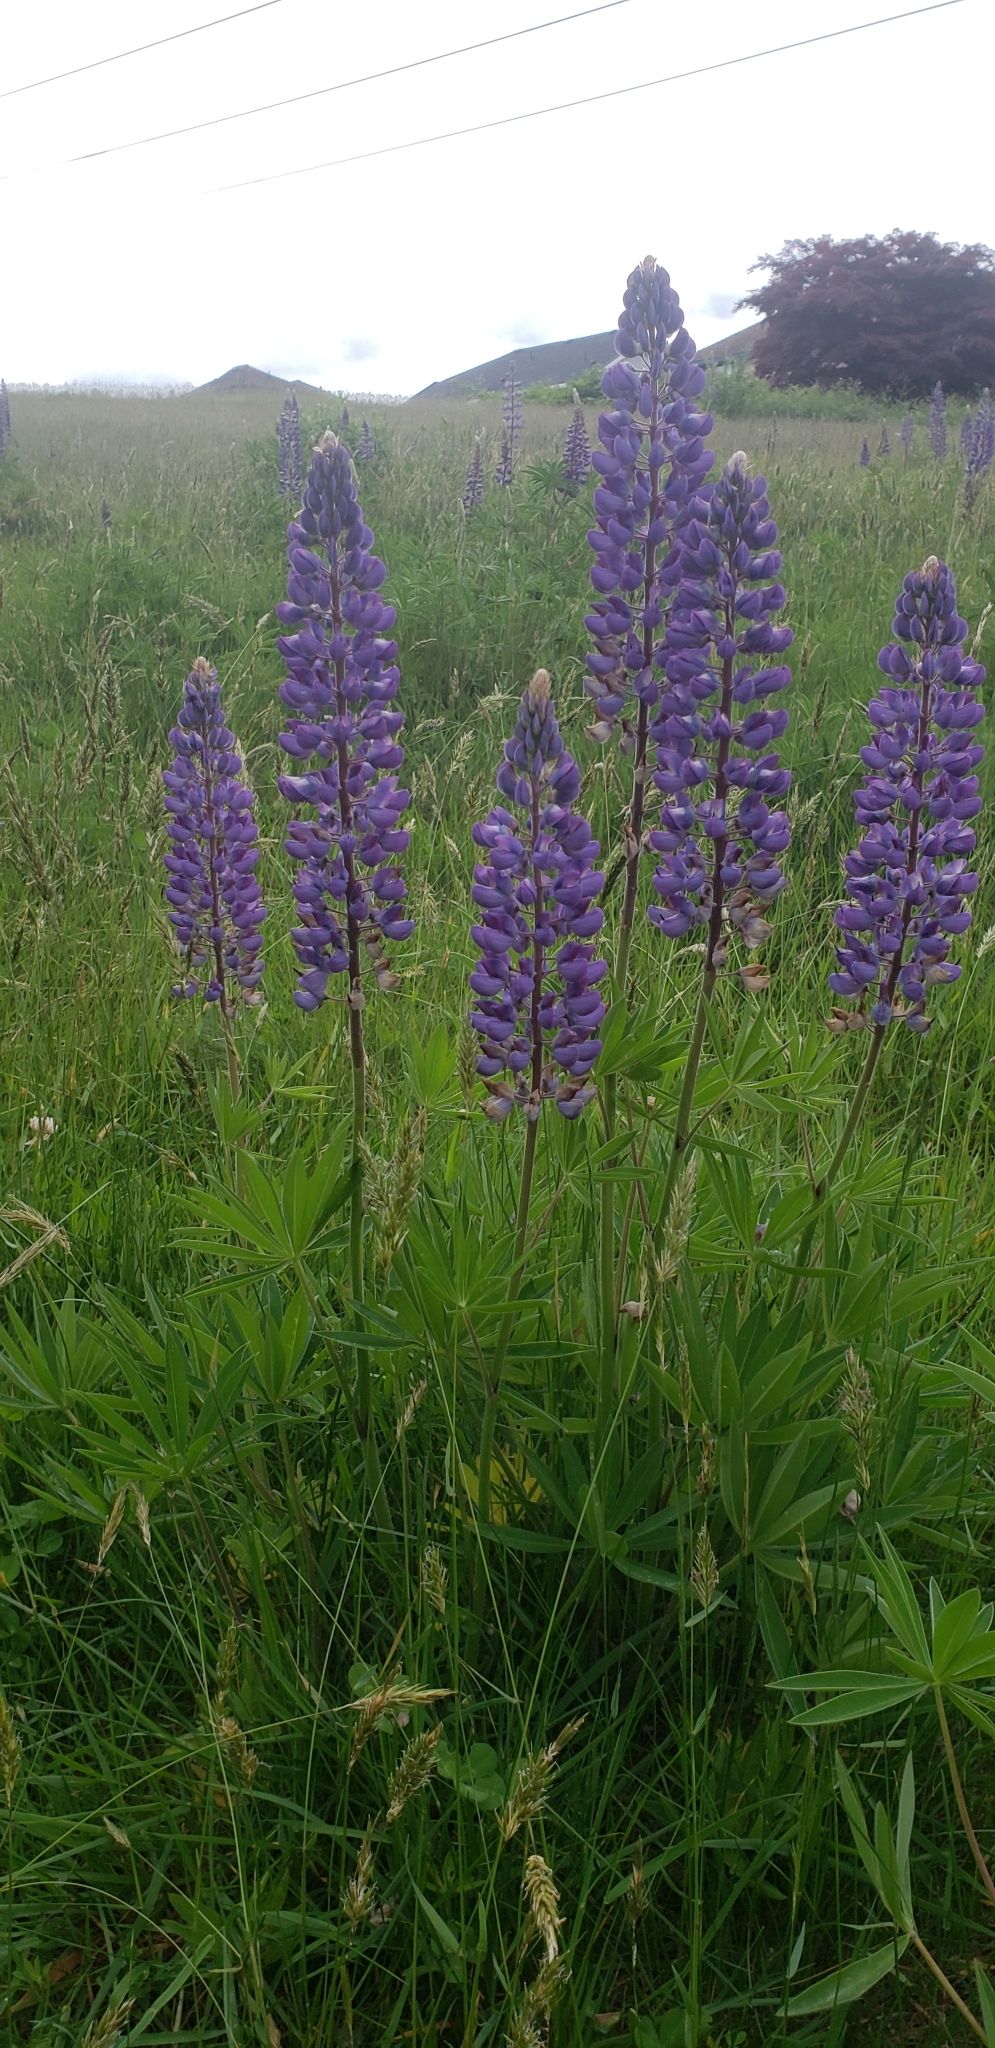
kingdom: Plantae
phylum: Tracheophyta
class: Magnoliopsida
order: Fabales
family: Fabaceae
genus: Lupinus
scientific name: Lupinus polyphyllus
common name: Garden lupin
